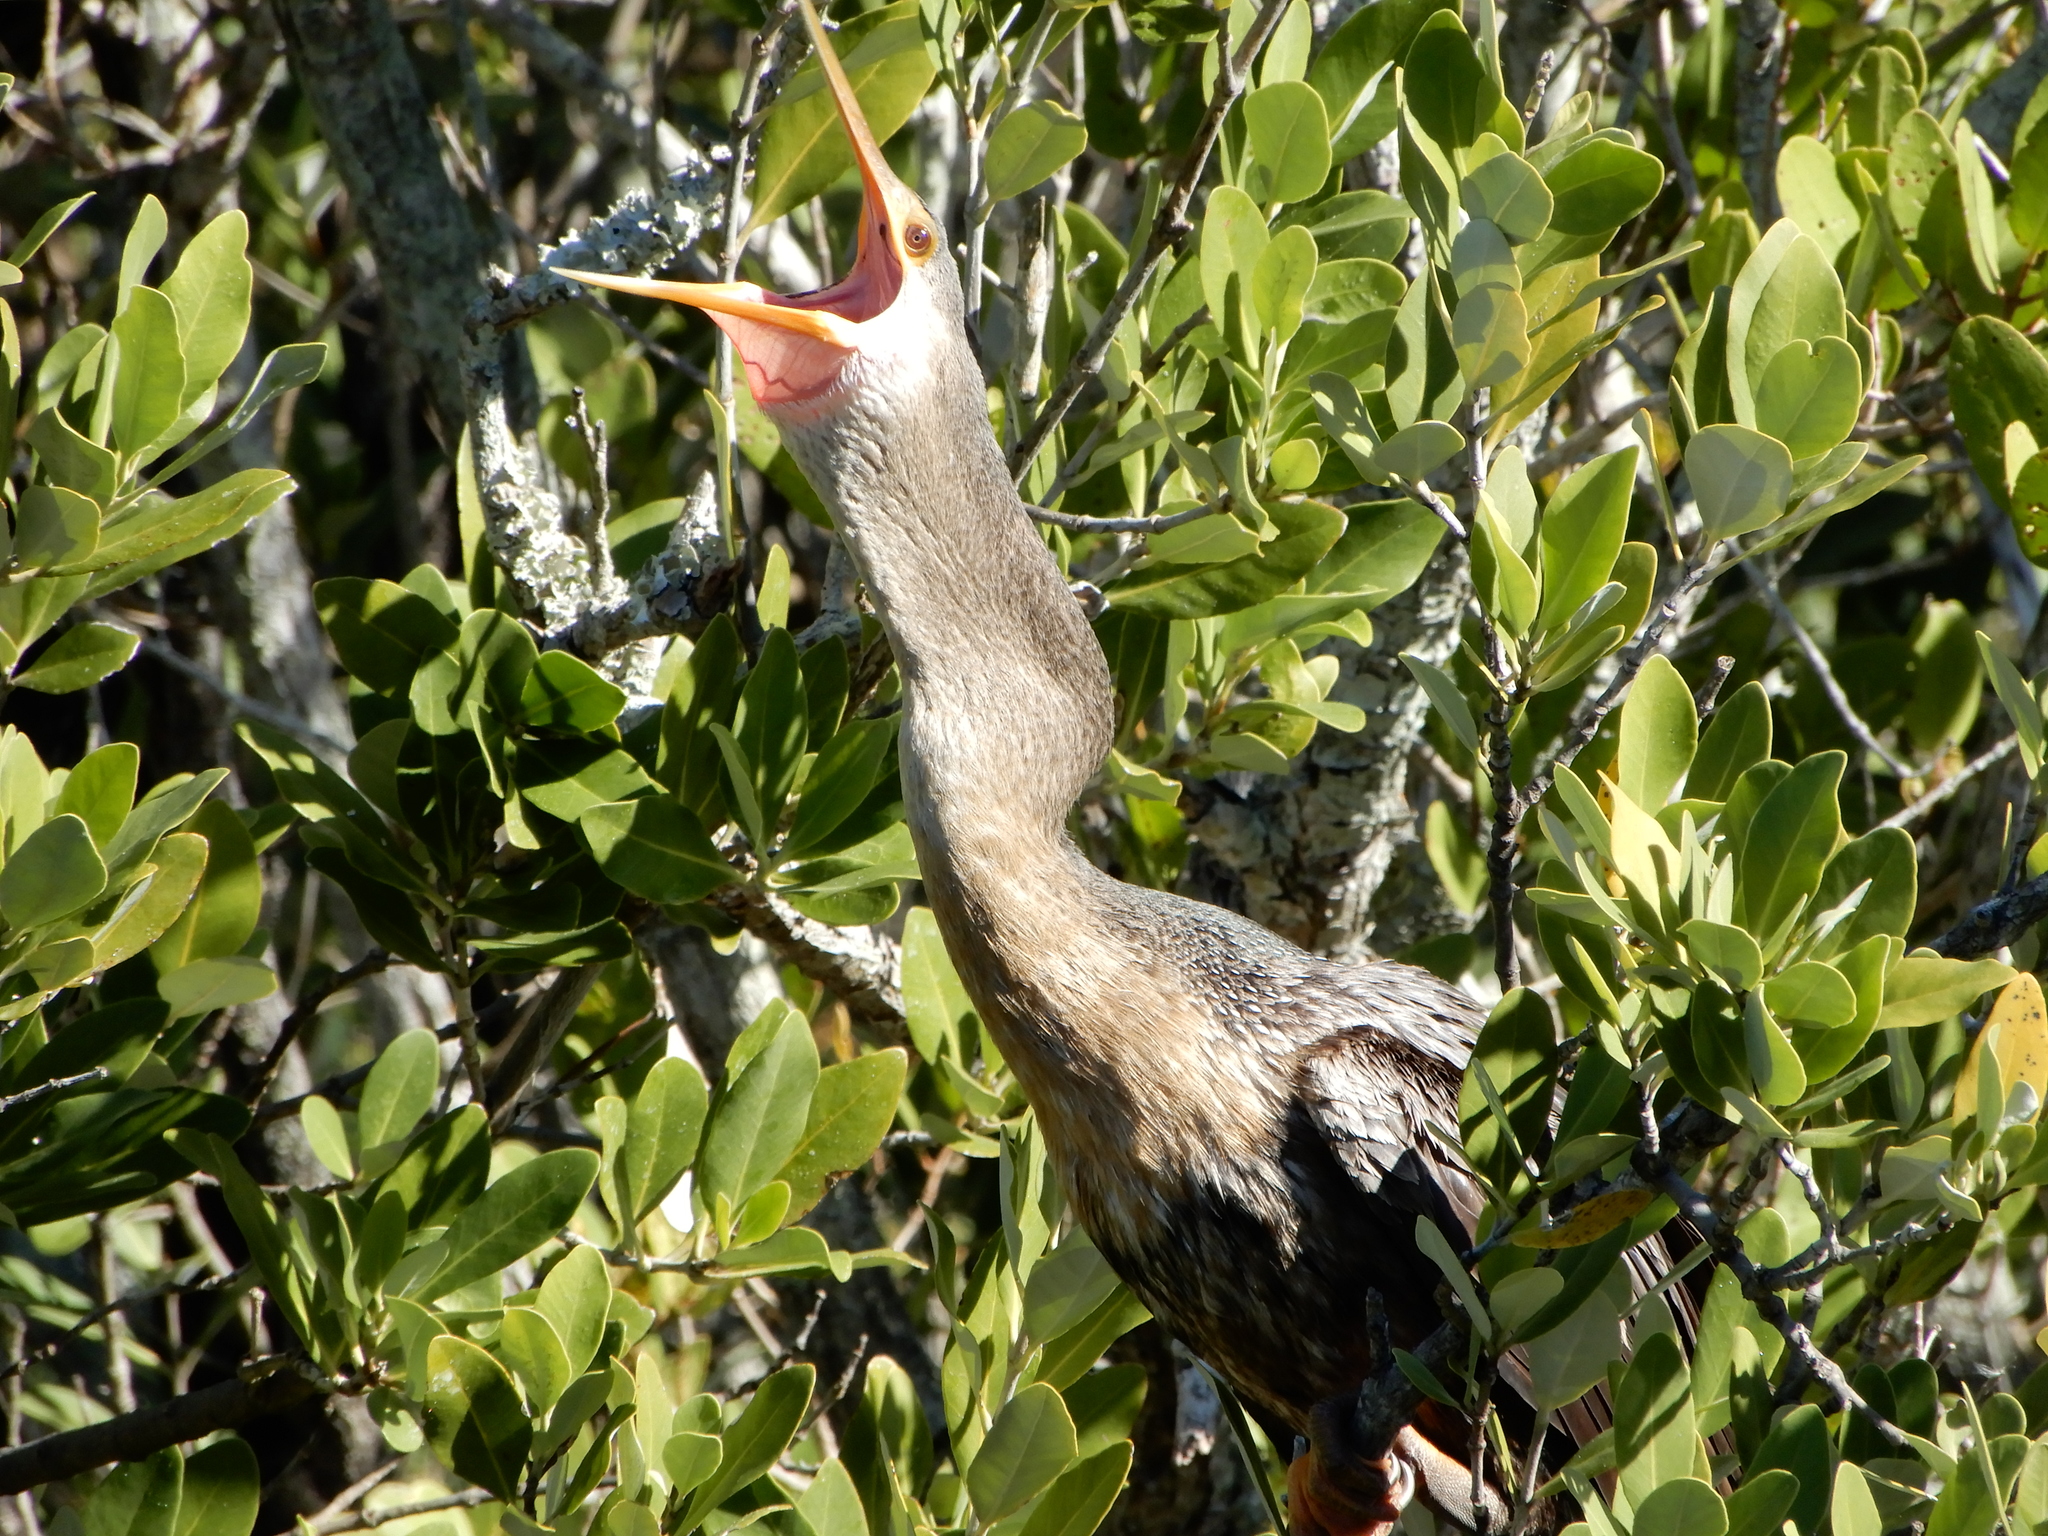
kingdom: Animalia
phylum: Chordata
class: Aves
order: Suliformes
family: Anhingidae
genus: Anhinga
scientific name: Anhinga anhinga
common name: Anhinga
